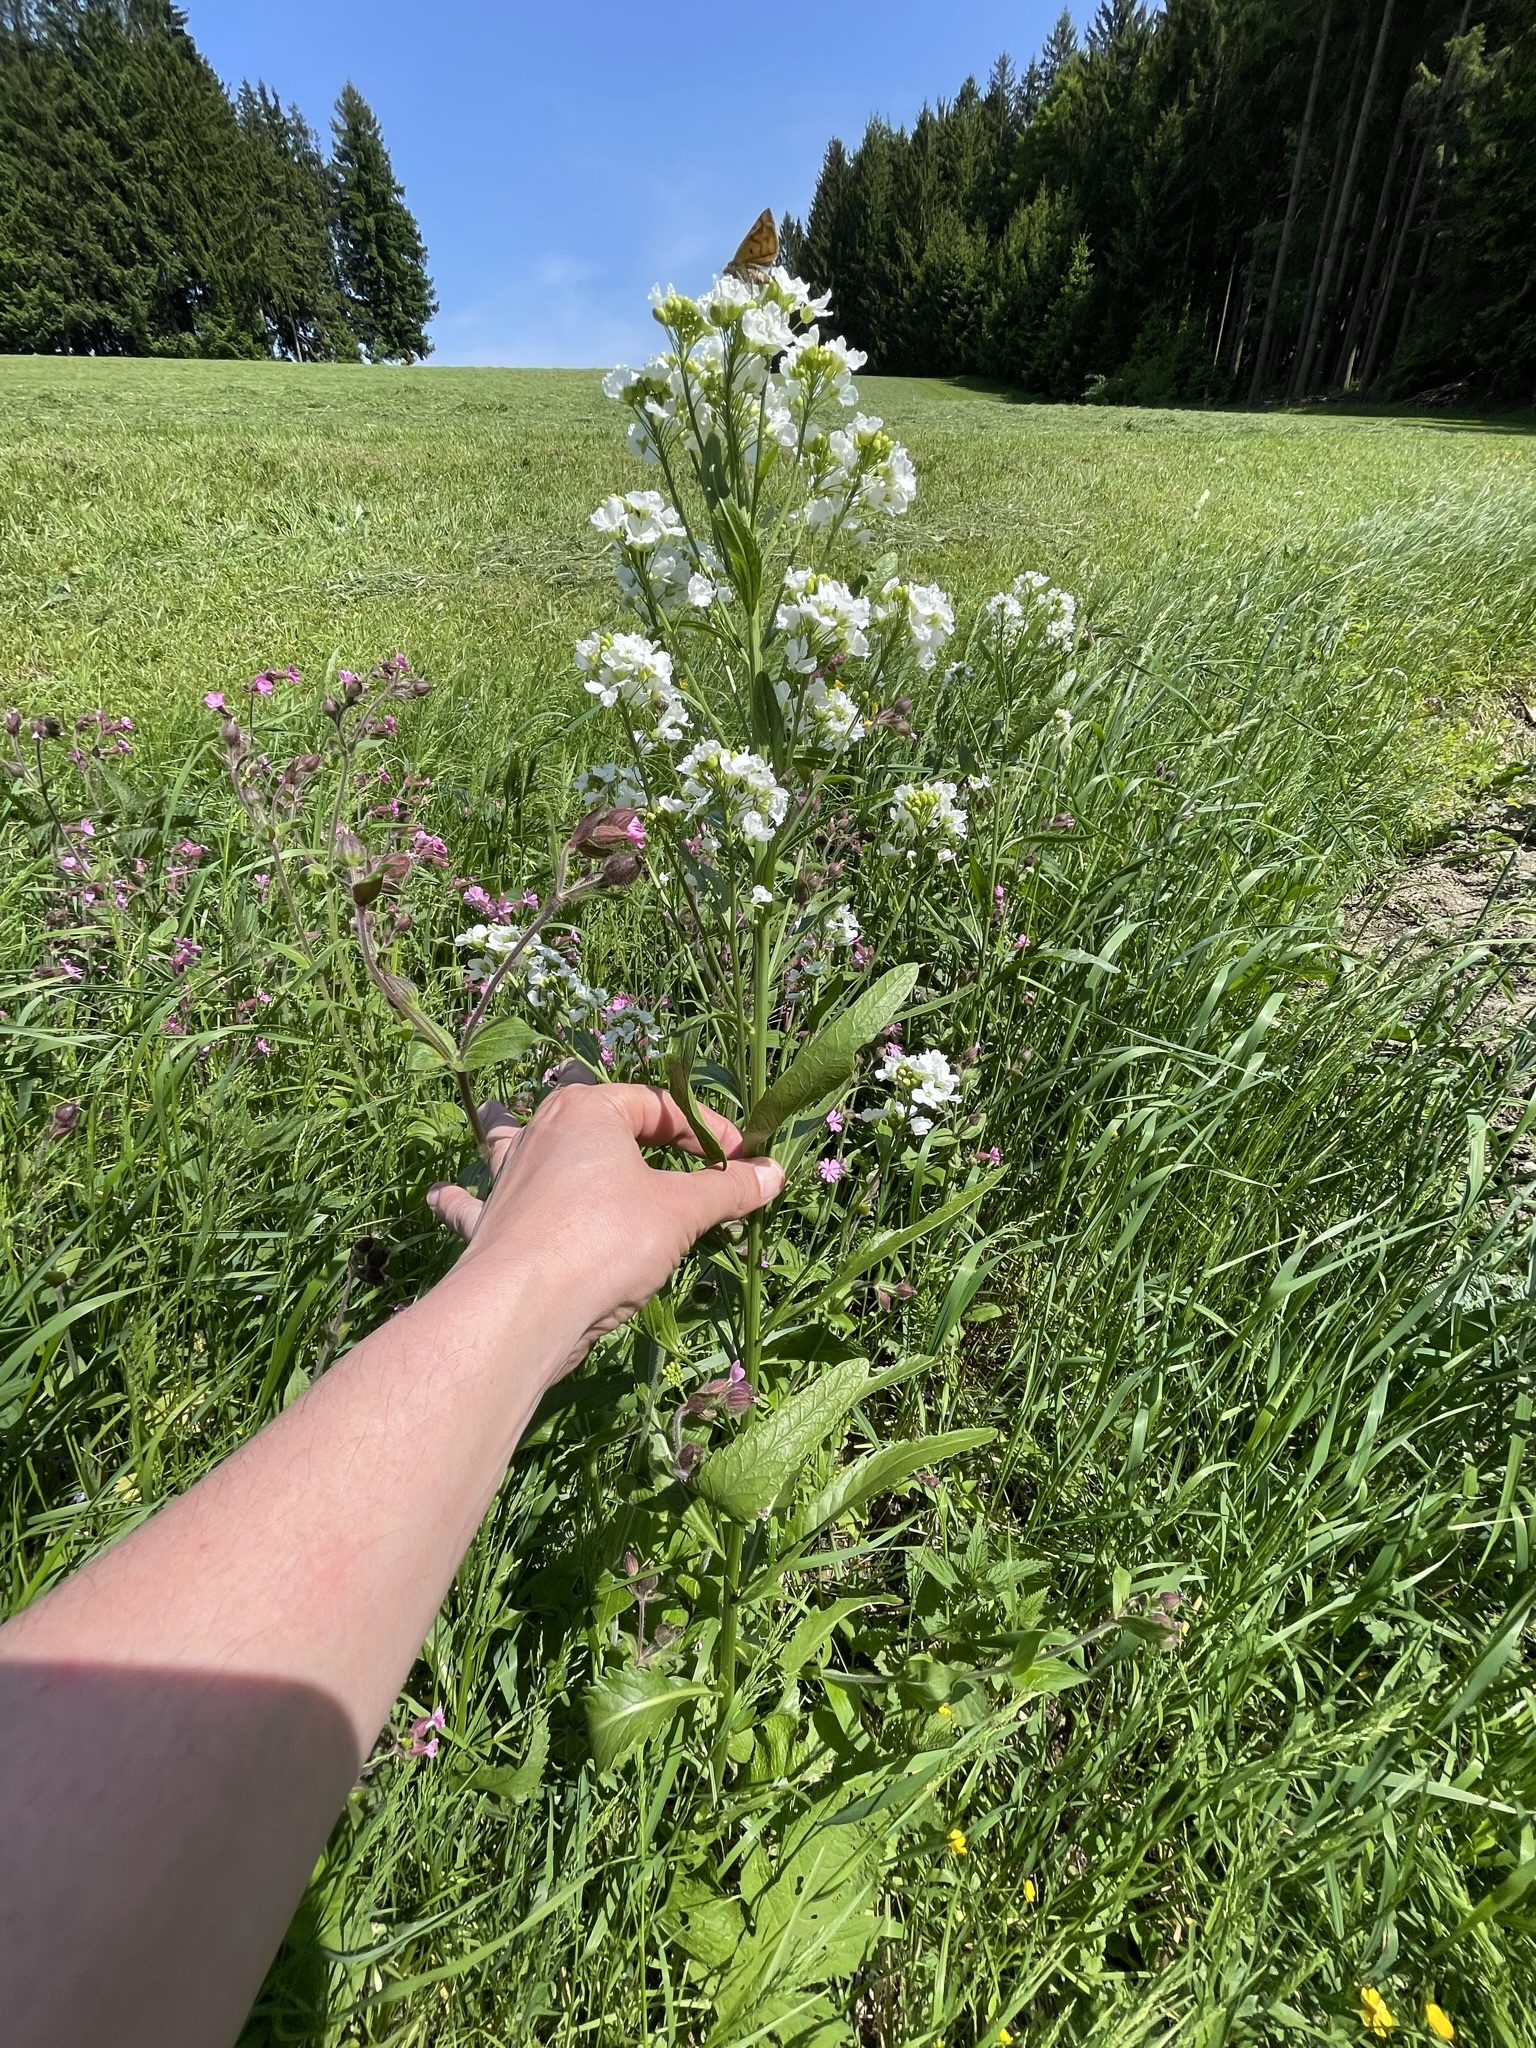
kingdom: Plantae
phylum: Tracheophyta
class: Magnoliopsida
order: Brassicales
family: Brassicaceae
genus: Armoracia
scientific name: Armoracia rusticana
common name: Horseradish
